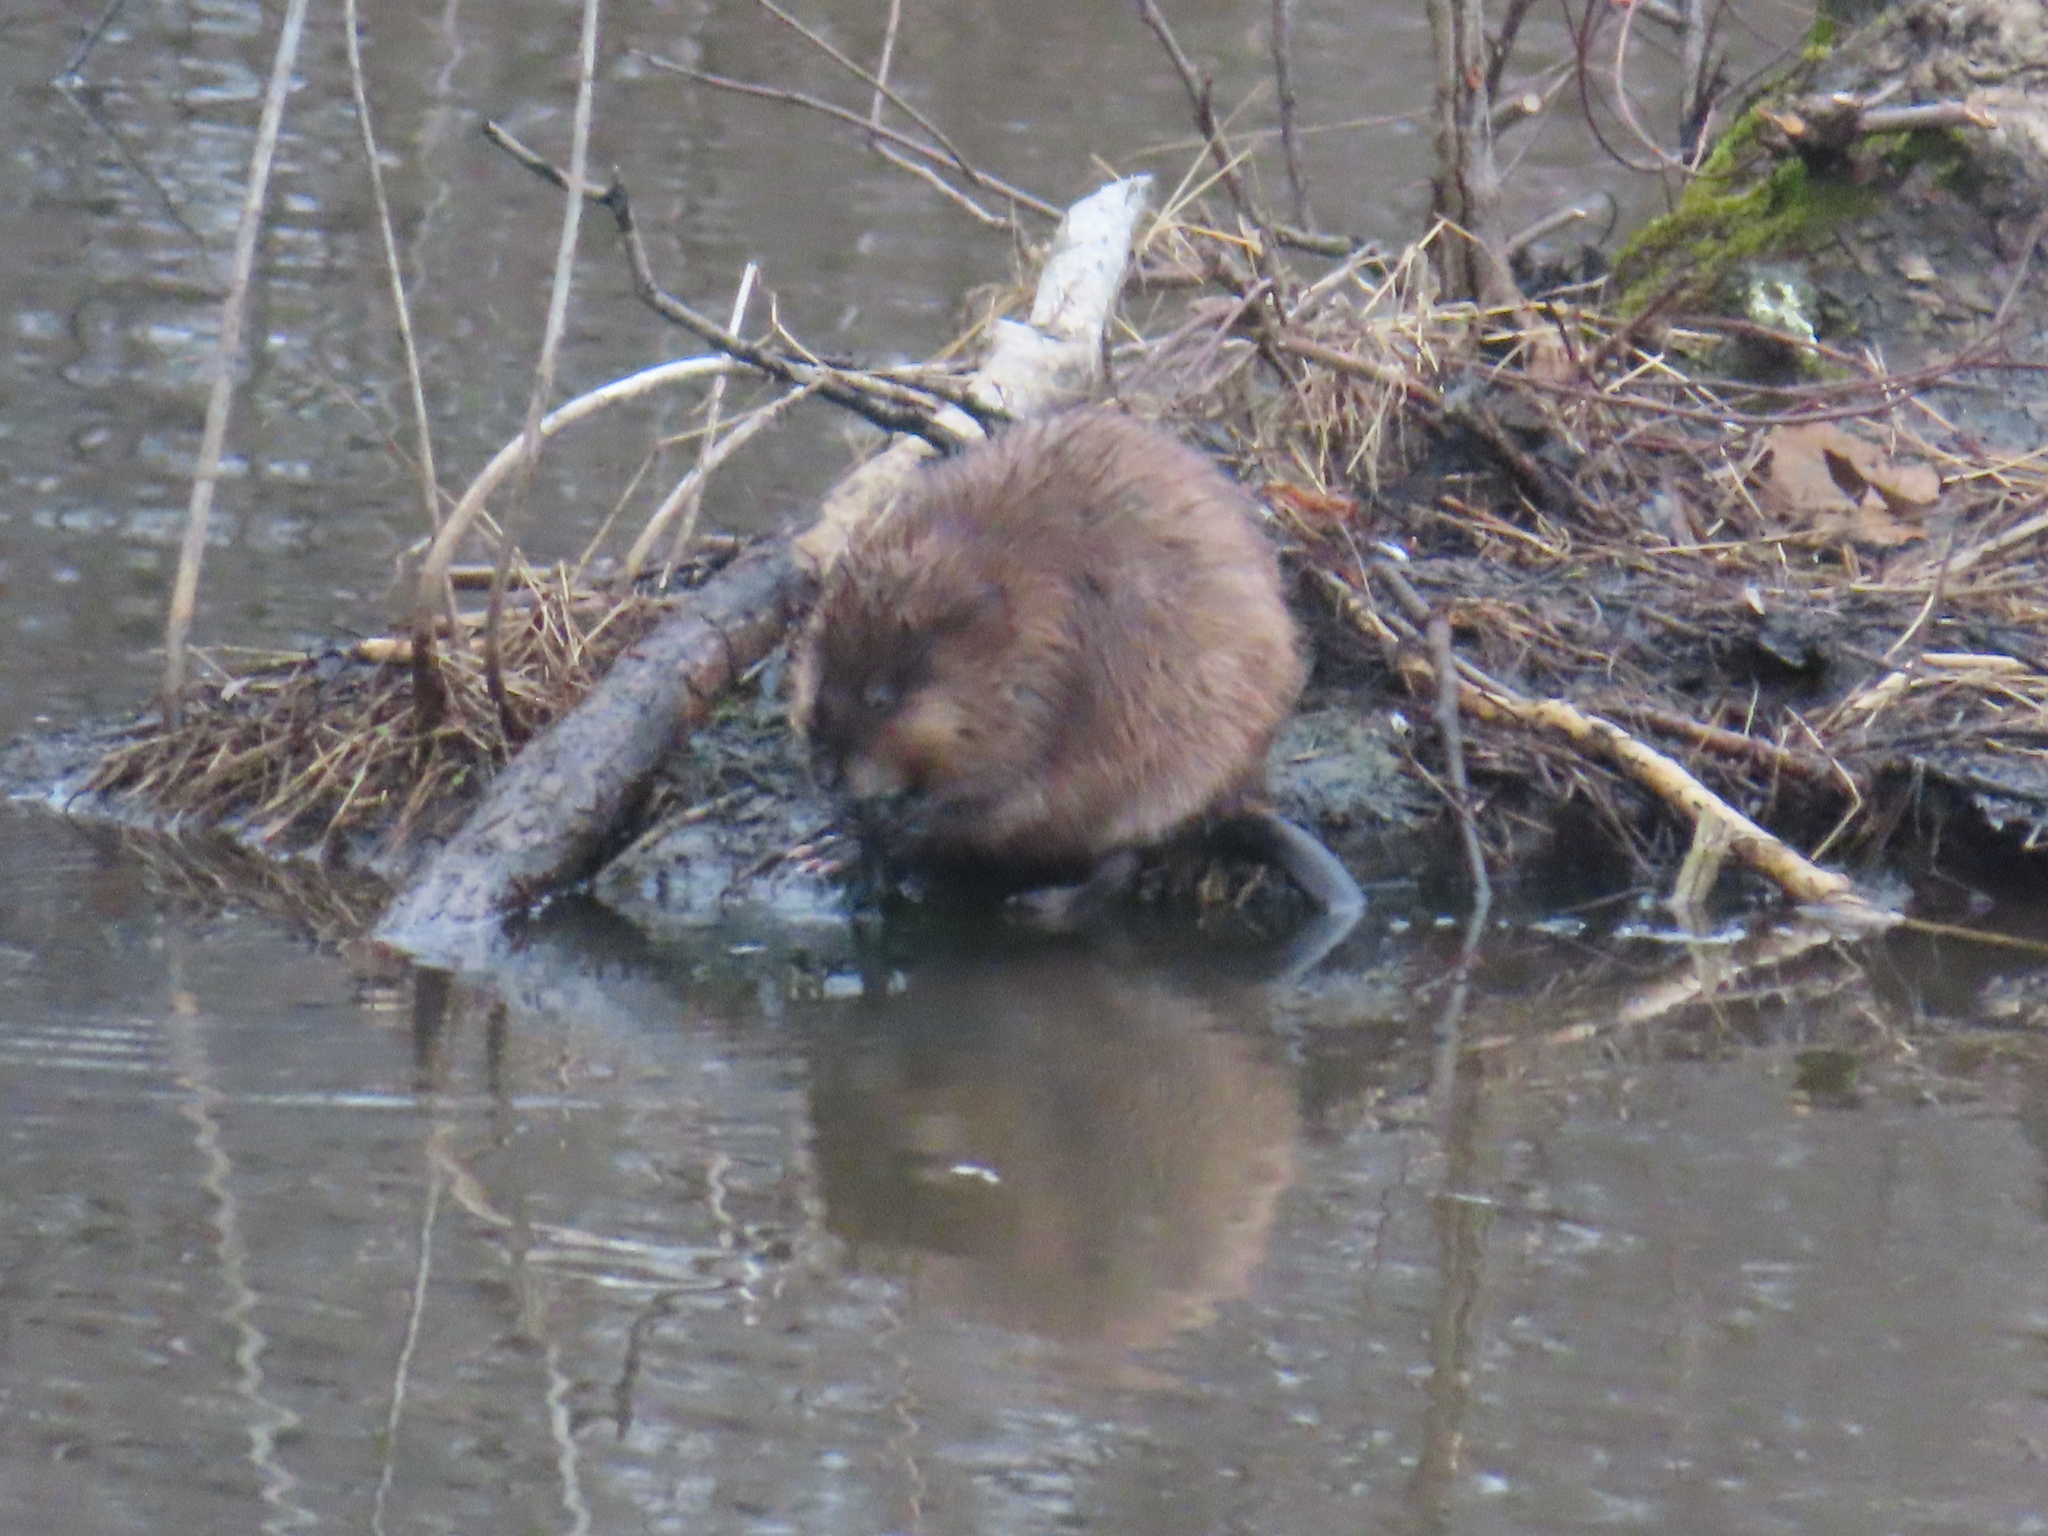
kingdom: Animalia
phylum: Chordata
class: Mammalia
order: Rodentia
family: Cricetidae
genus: Ondatra
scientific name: Ondatra zibethicus
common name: Muskrat
